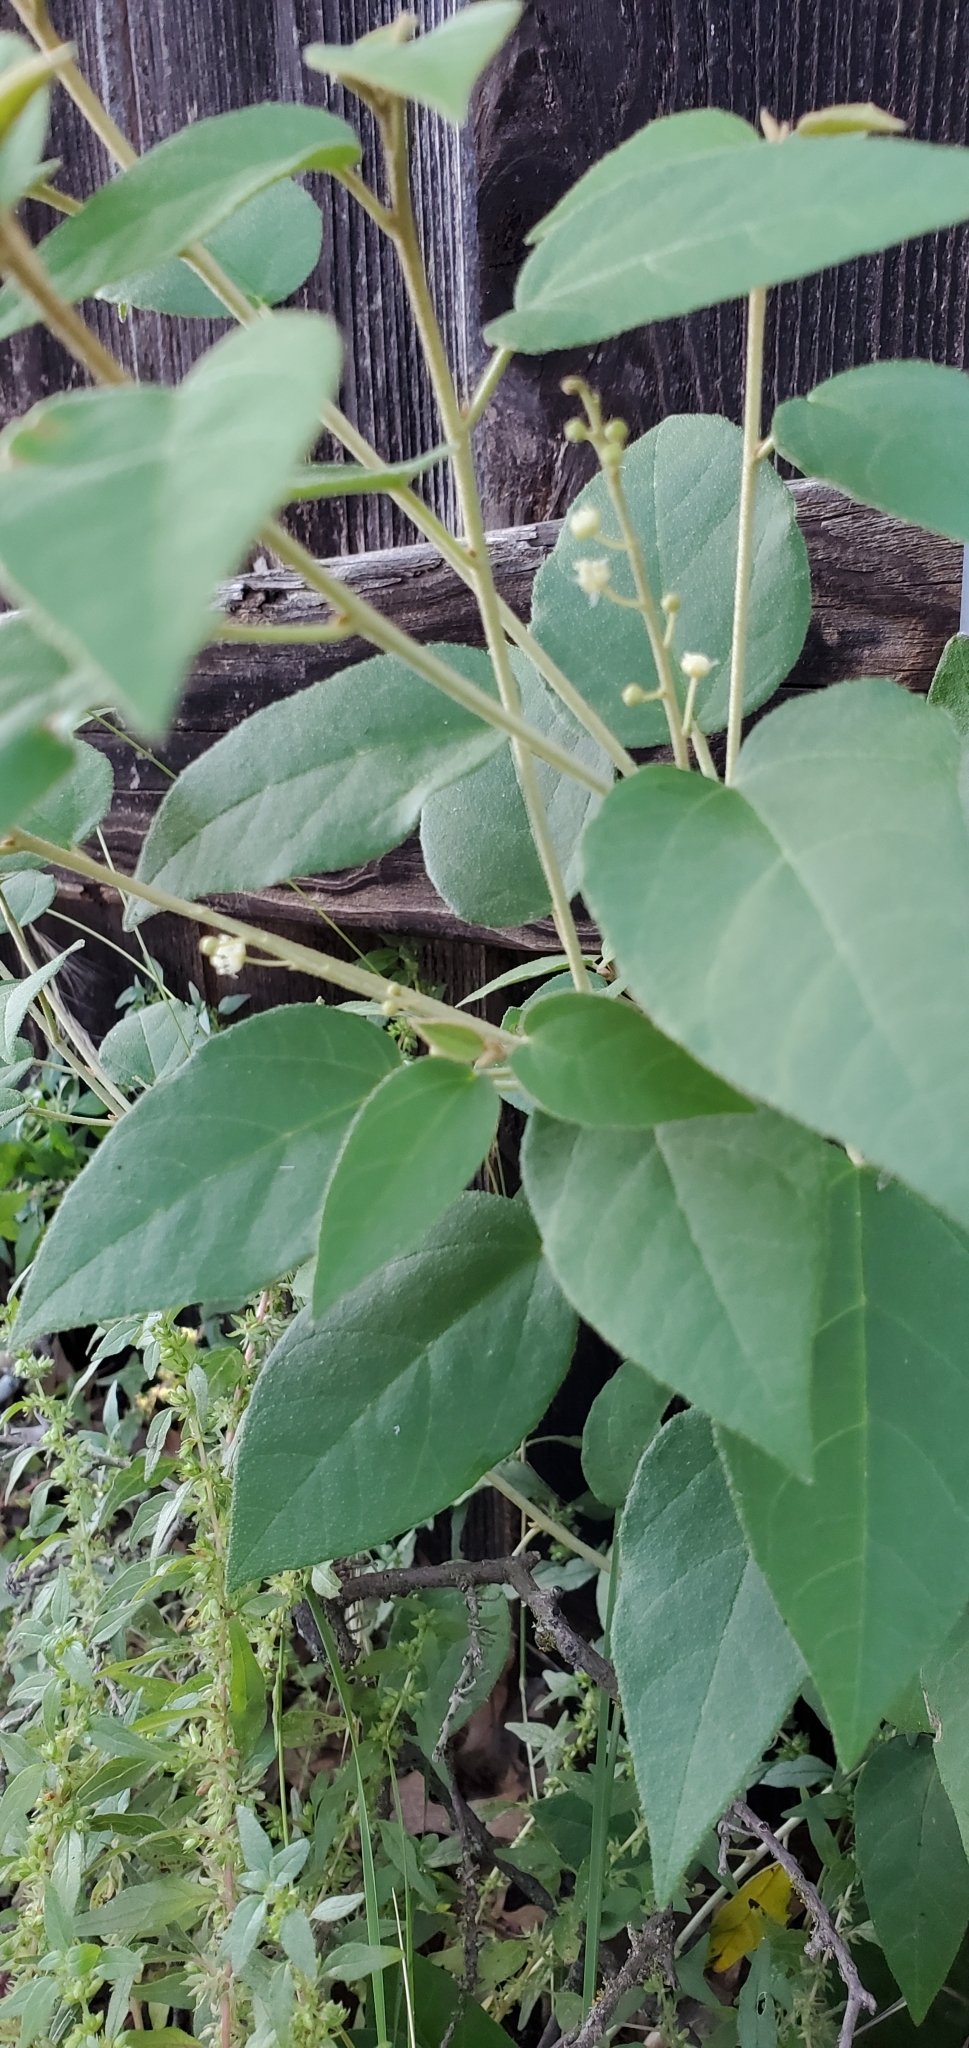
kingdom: Plantae
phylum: Tracheophyta
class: Magnoliopsida
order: Malpighiales
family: Euphorbiaceae
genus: Croton
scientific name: Croton fruticulosus
